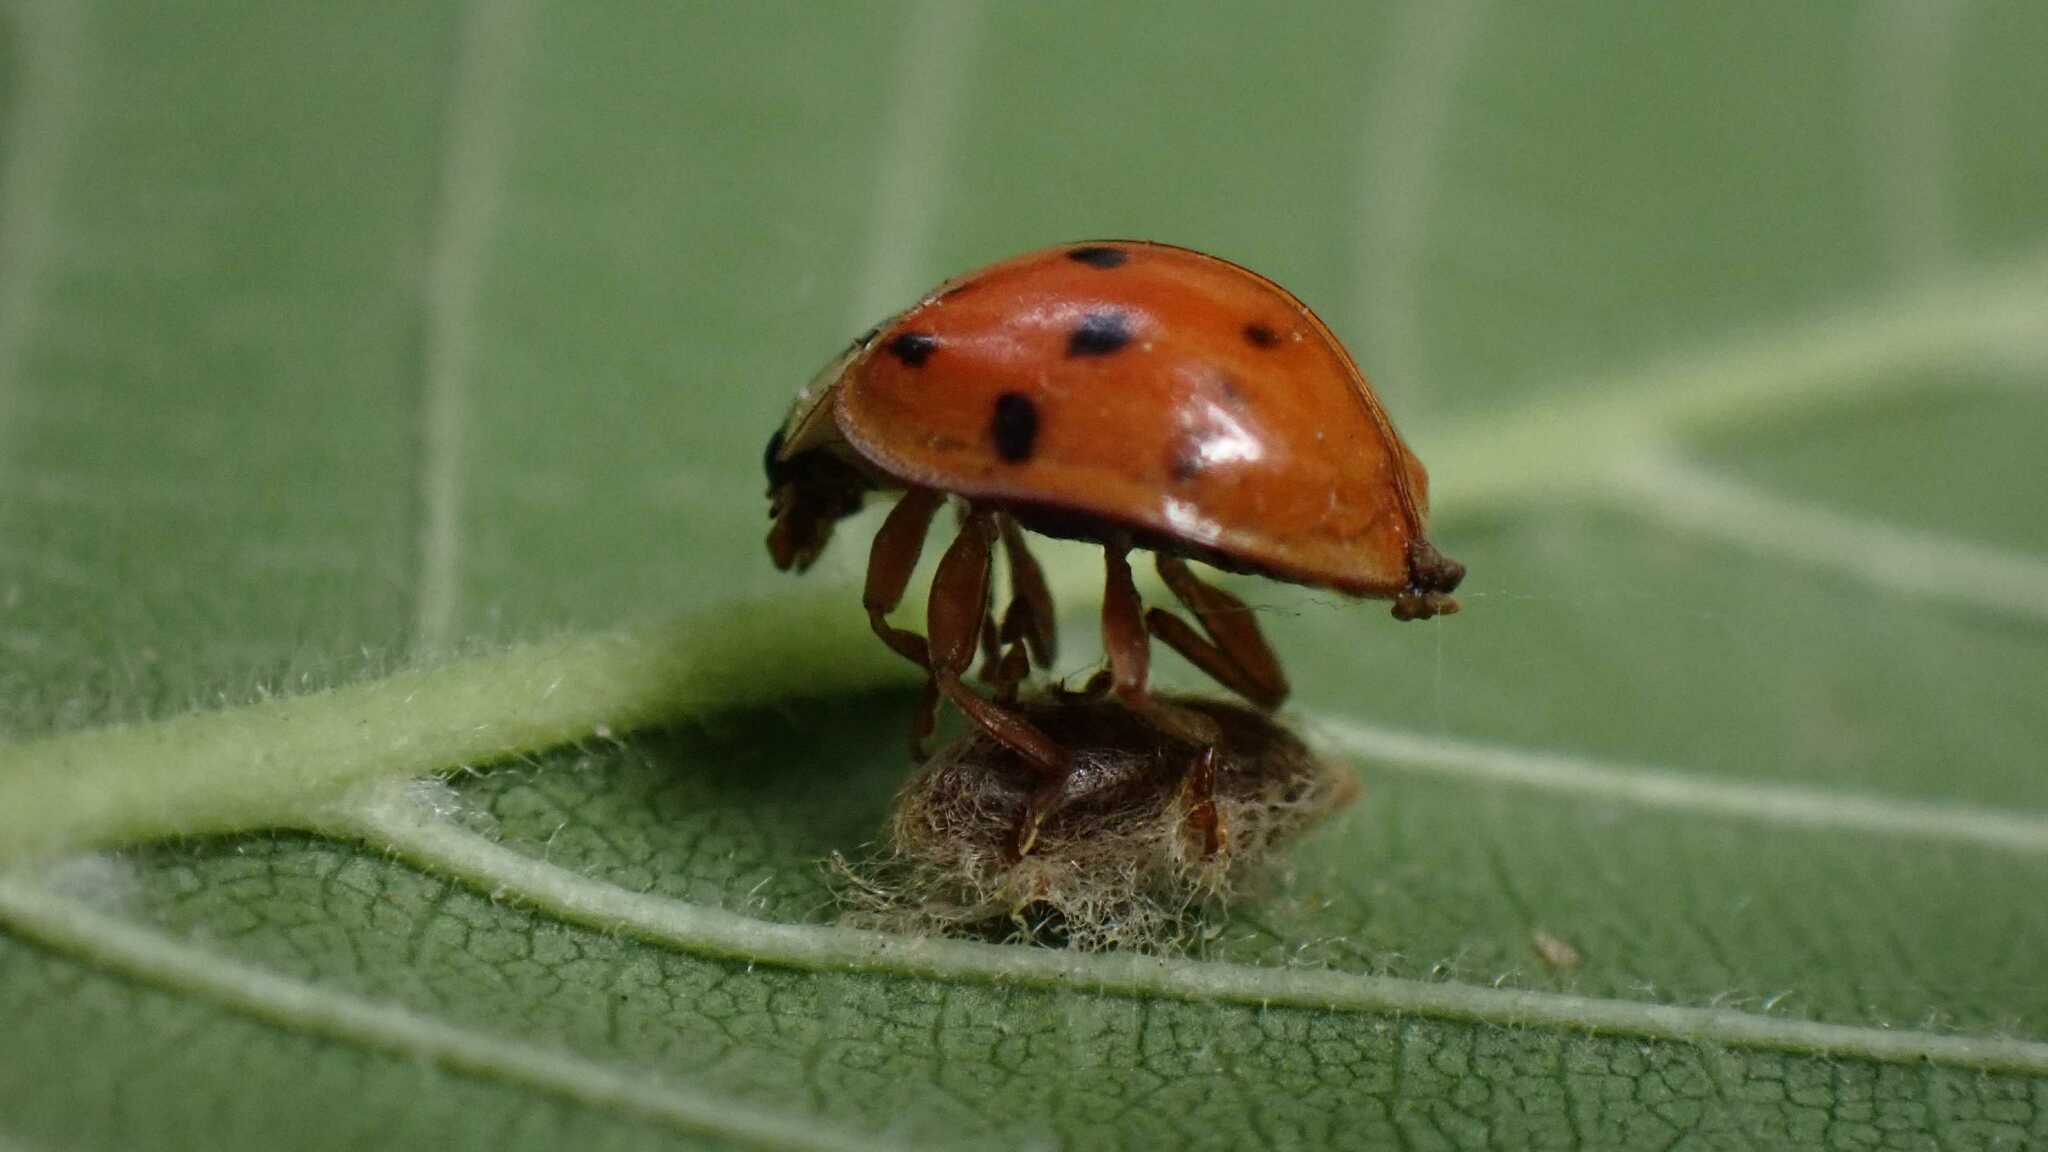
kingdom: Animalia
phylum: Arthropoda
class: Insecta
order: Hymenoptera
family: Braconidae
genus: Dinocampus
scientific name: Dinocampus coccinellae
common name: Braconid wasp
